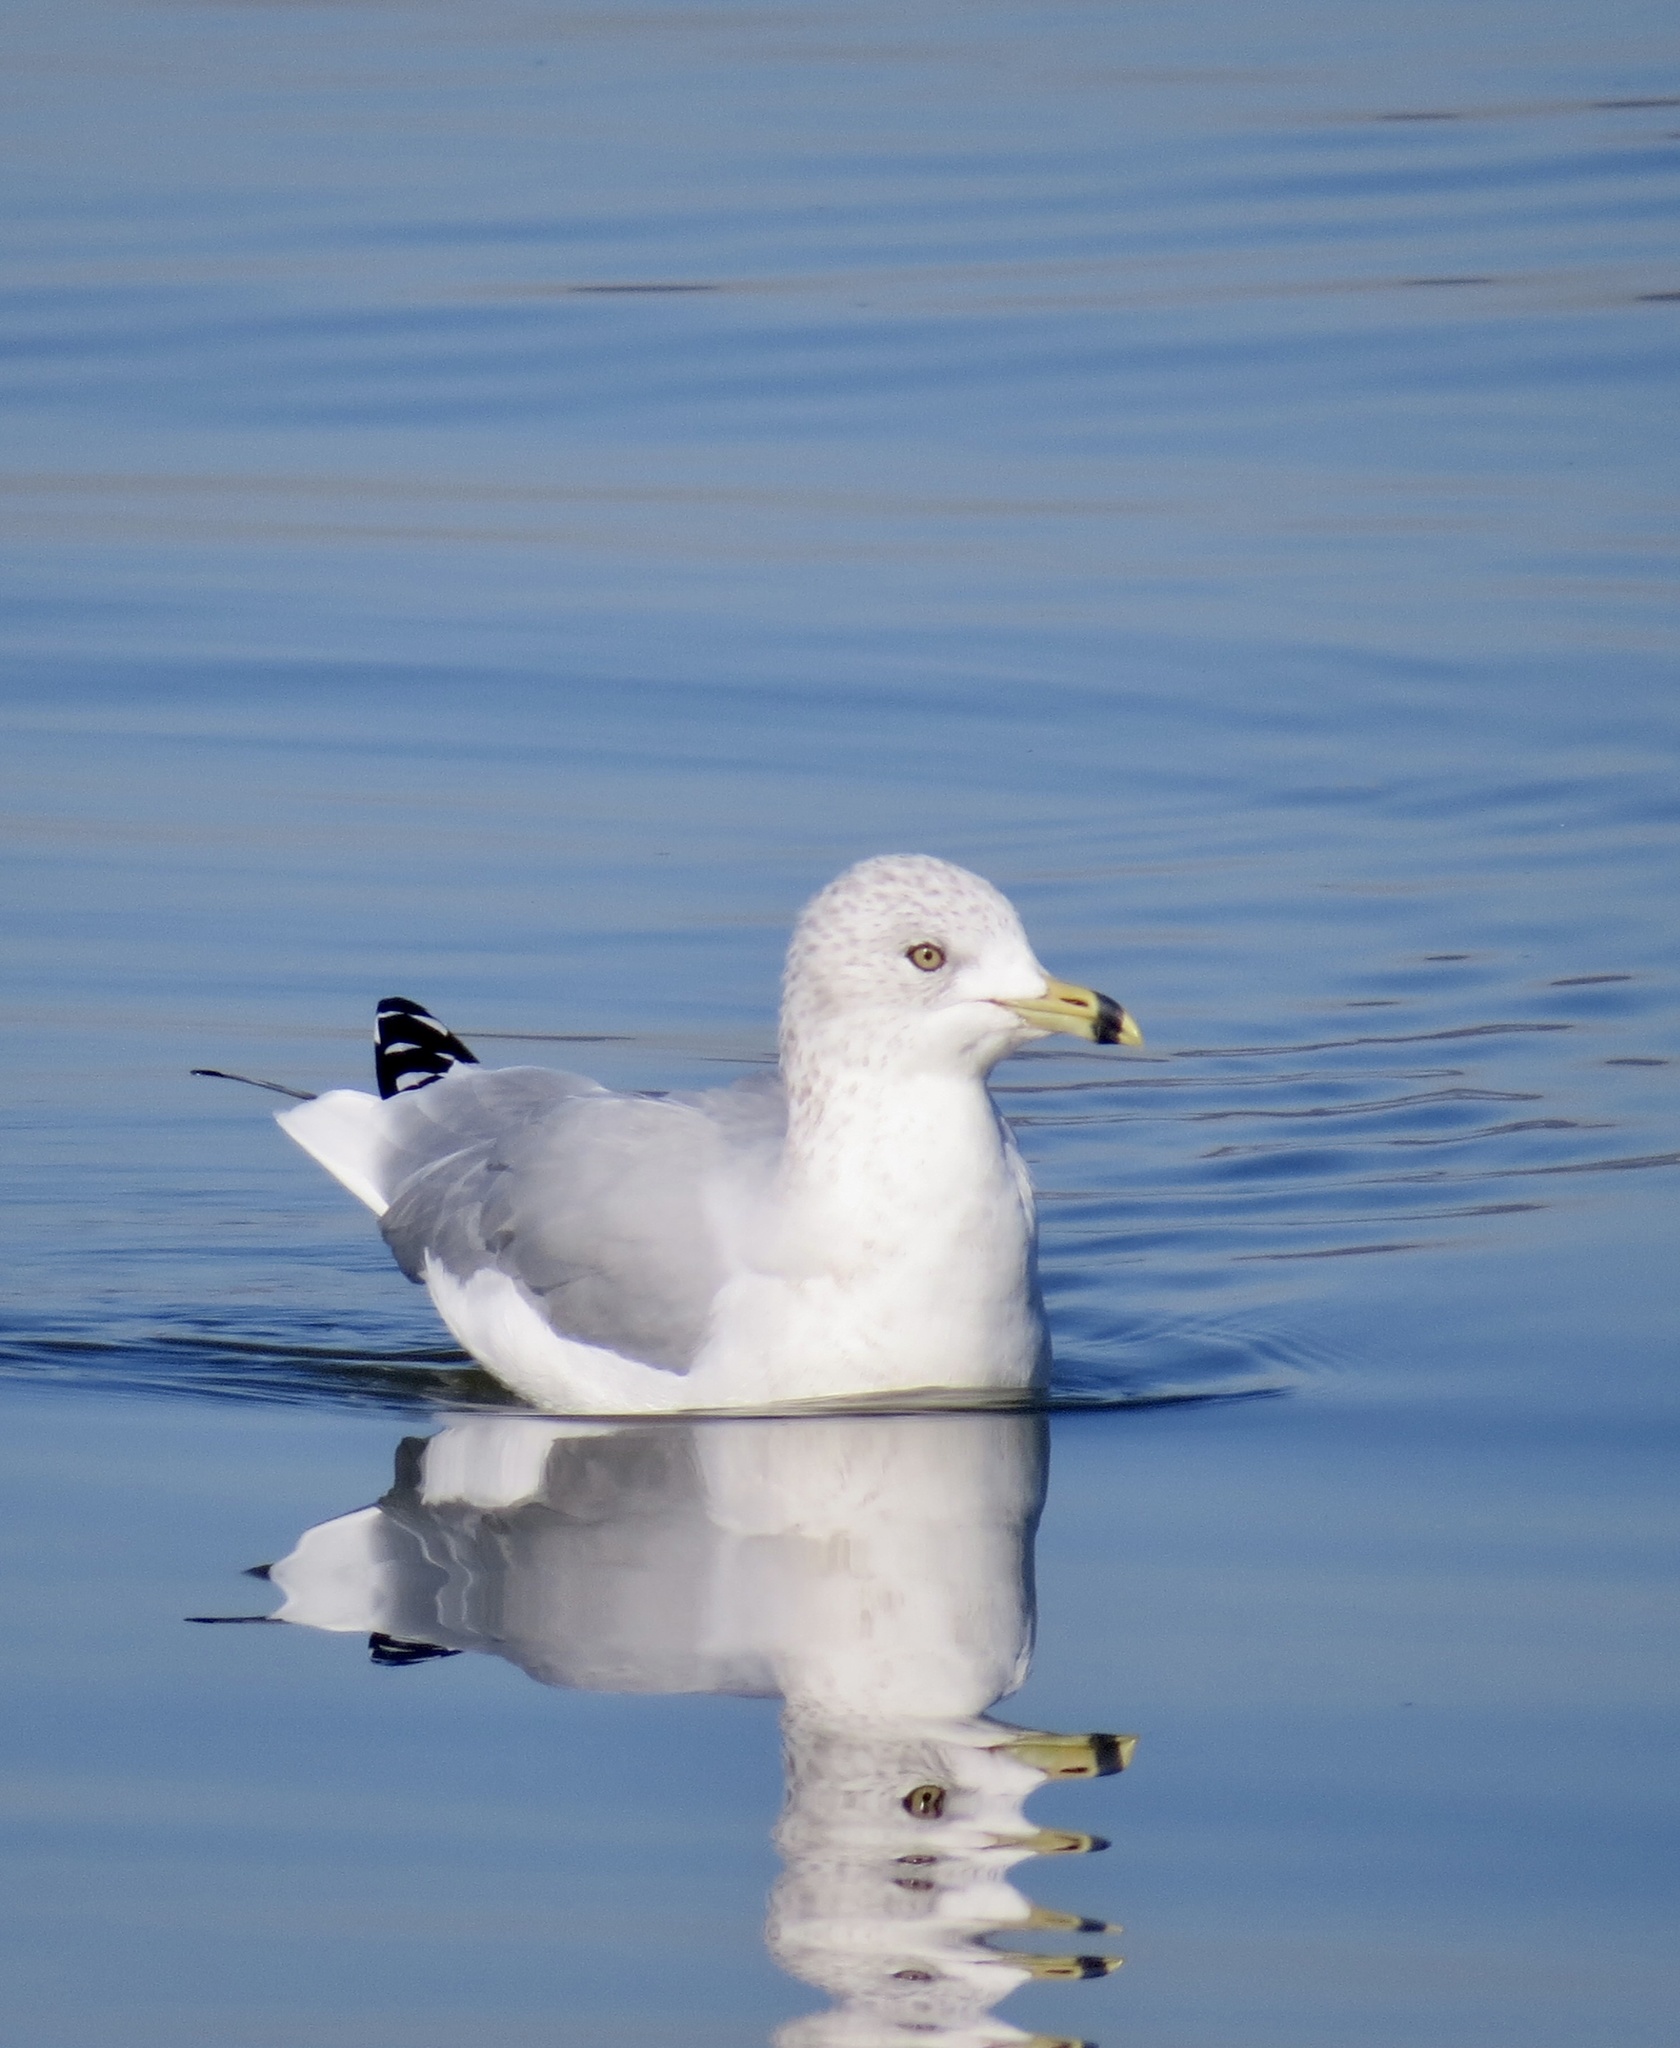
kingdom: Animalia
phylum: Chordata
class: Aves
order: Charadriiformes
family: Laridae
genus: Larus
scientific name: Larus delawarensis
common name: Ring-billed gull
